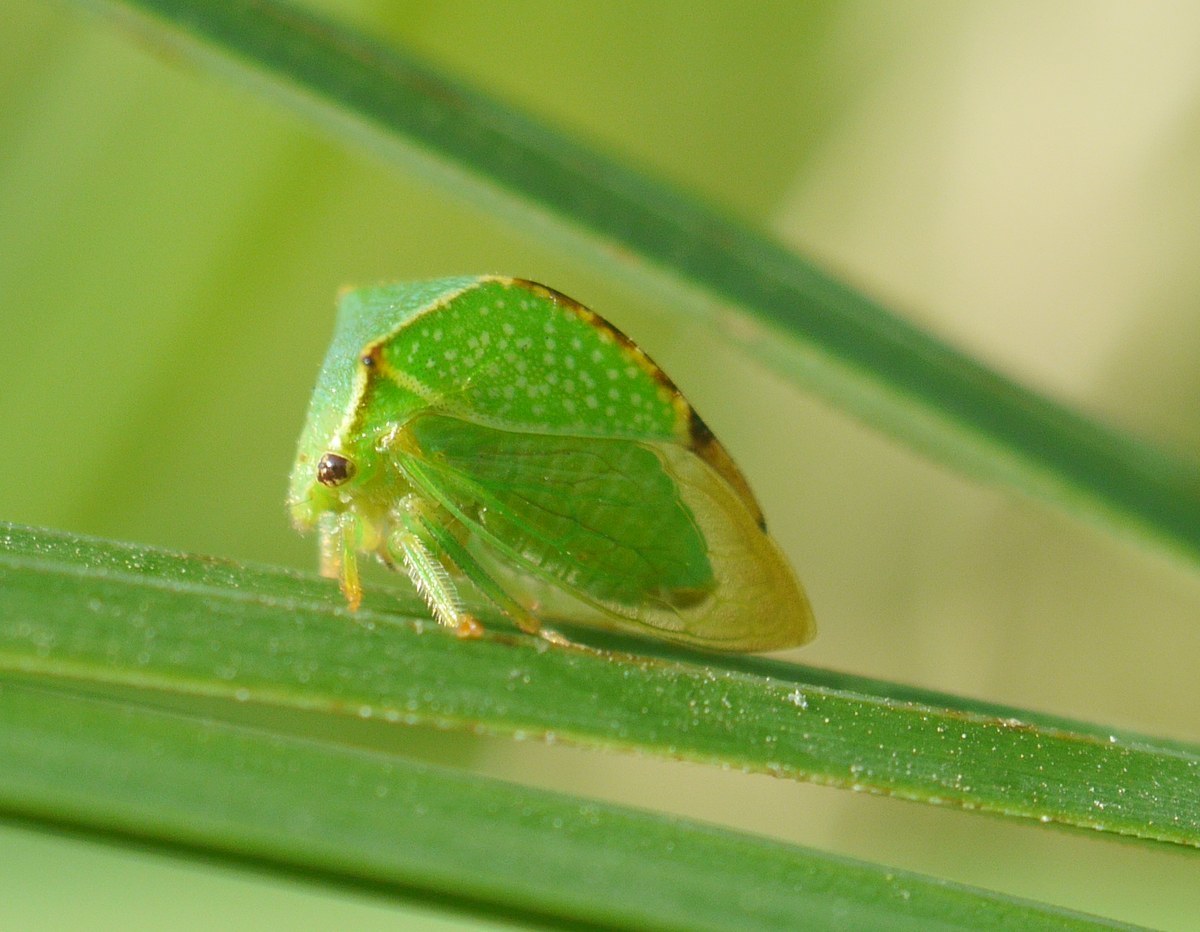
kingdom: Animalia
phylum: Arthropoda
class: Insecta
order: Hemiptera
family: Membracidae
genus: Stictocephala
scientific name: Stictocephala bisonia
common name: American buffalo treehopper
